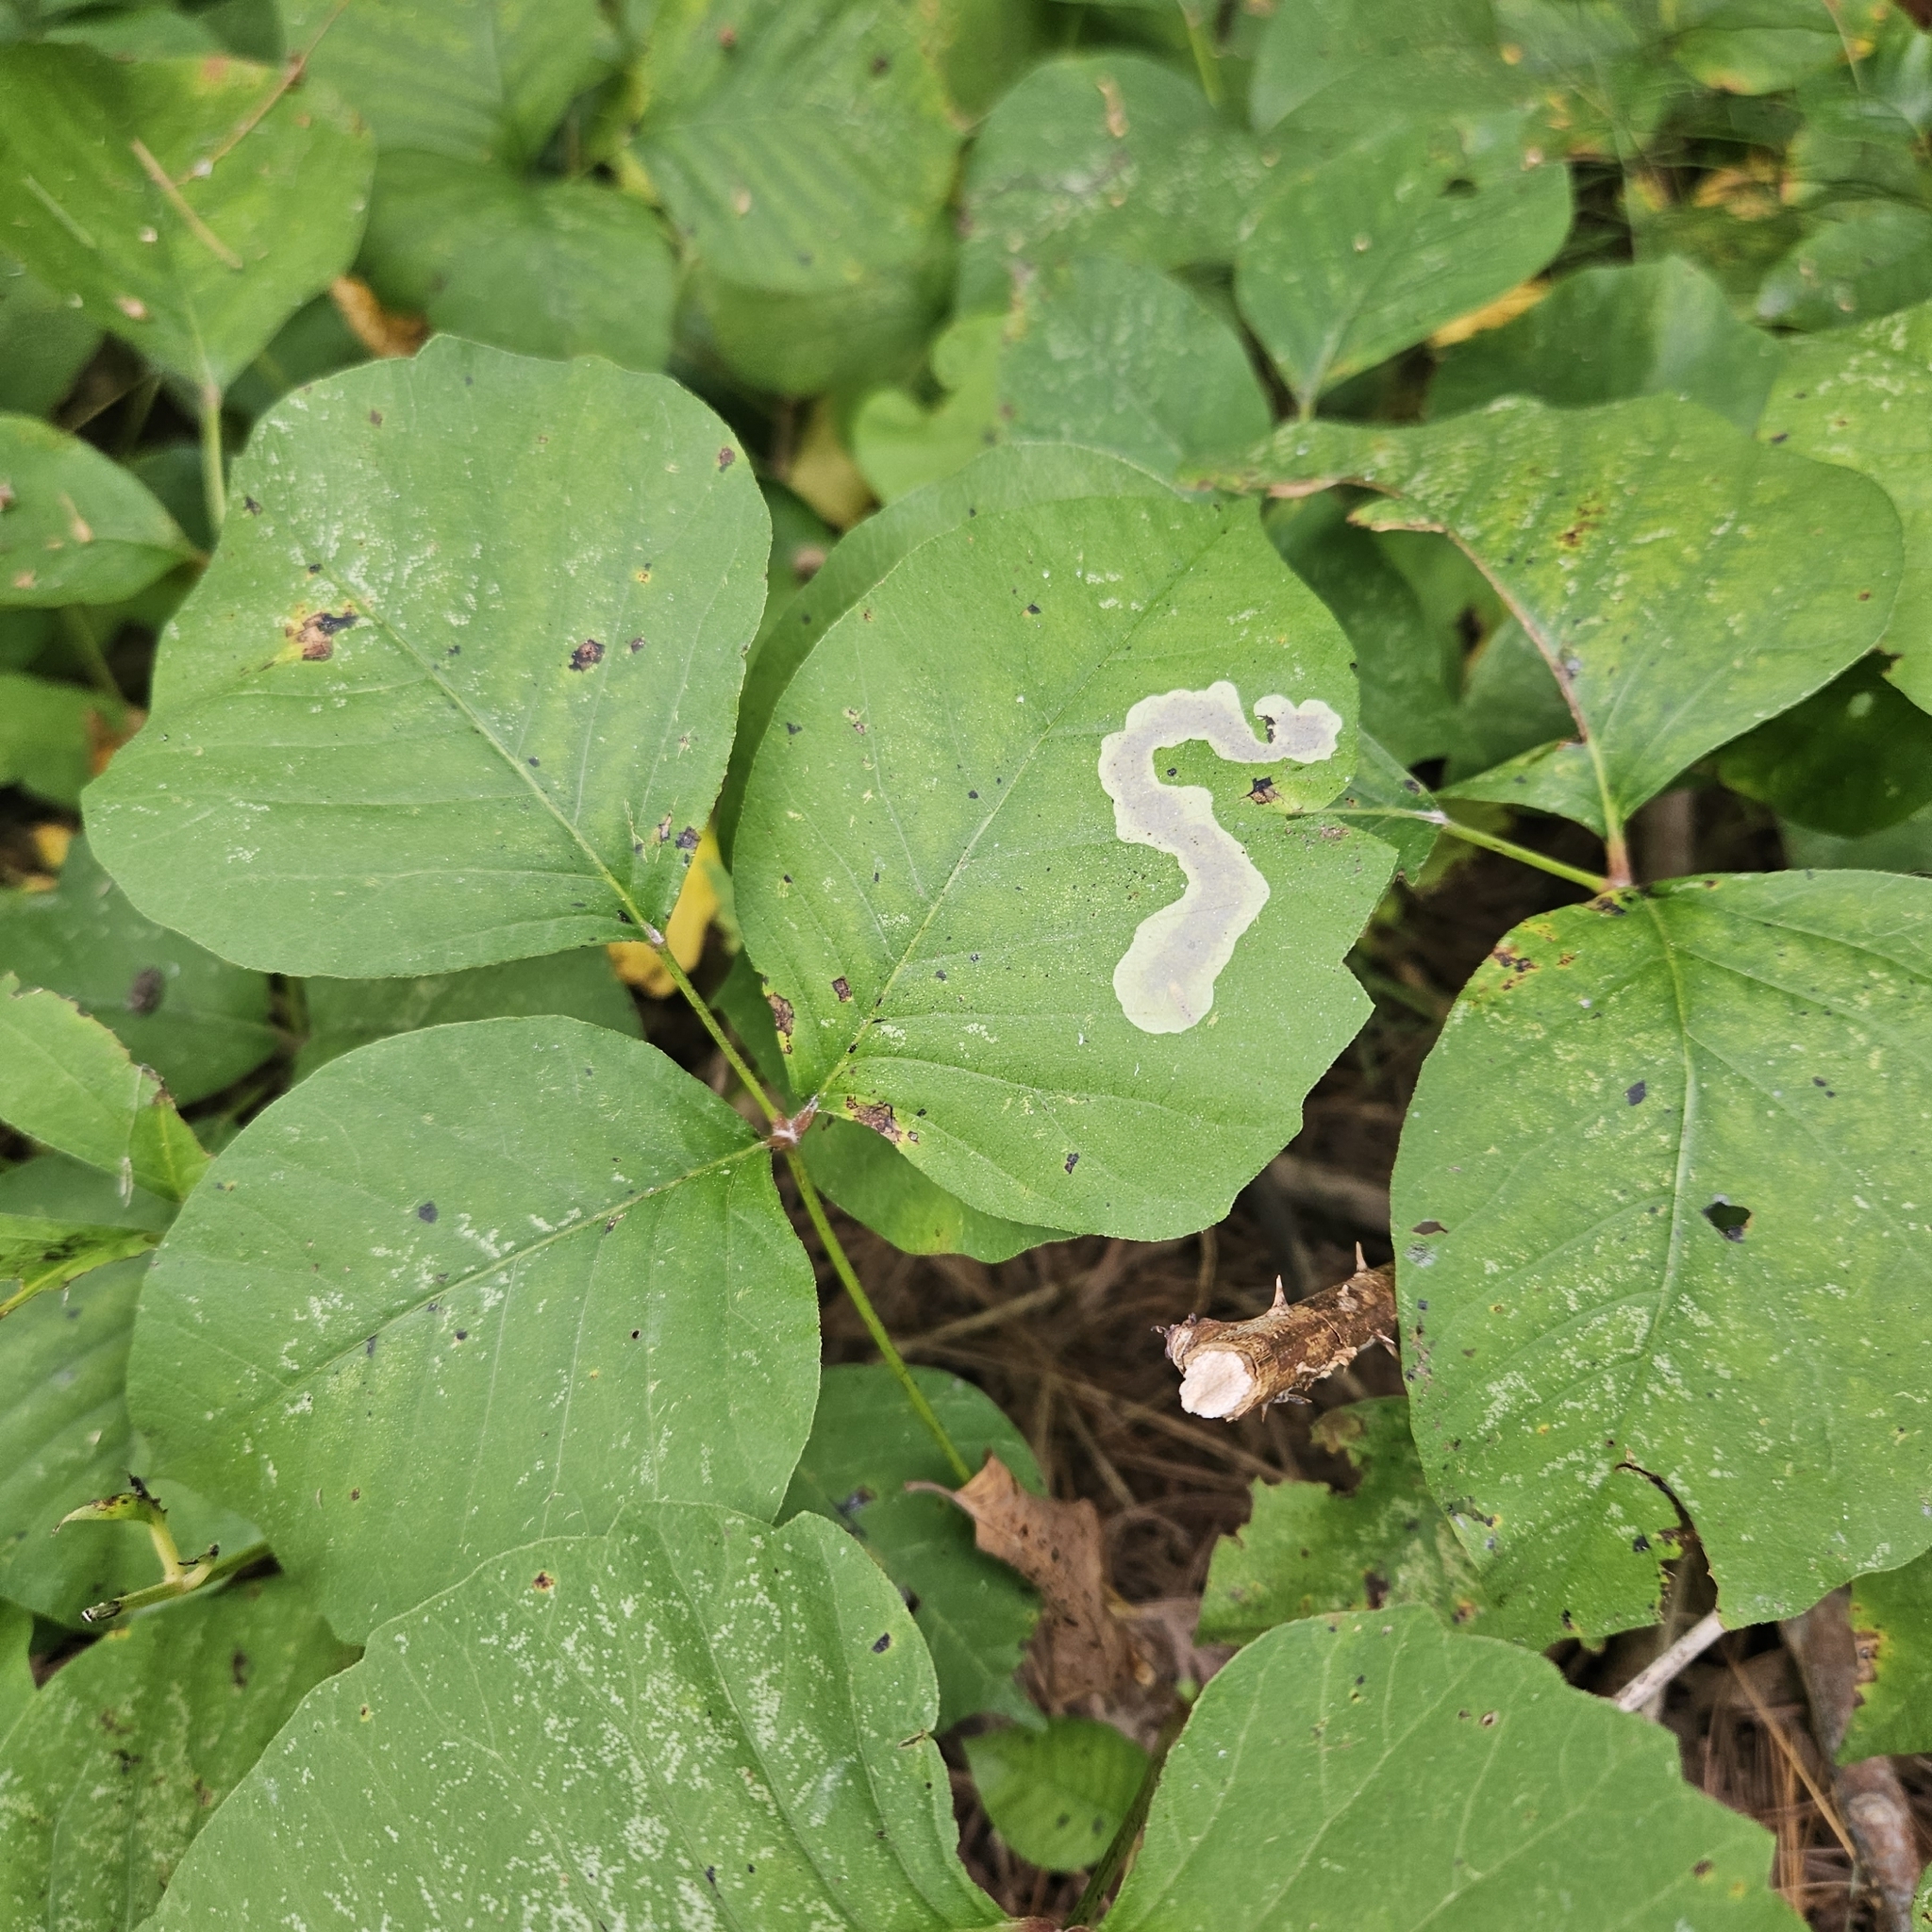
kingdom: Animalia
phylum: Arthropoda
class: Insecta
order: Lepidoptera
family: Gracillariidae
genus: Cameraria
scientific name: Cameraria guttifinitella
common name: Poison ivy leaf-miner moth
